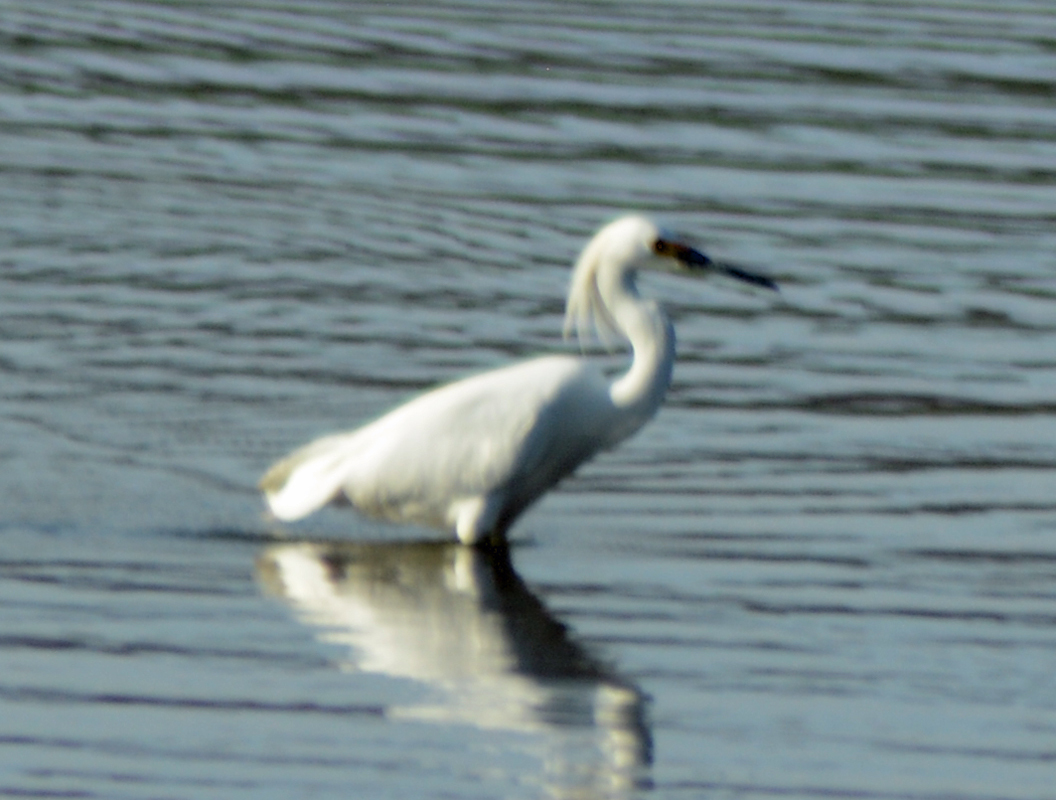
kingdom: Animalia
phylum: Chordata
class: Aves
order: Pelecaniformes
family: Ardeidae
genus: Egretta
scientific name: Egretta thula
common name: Snowy egret
